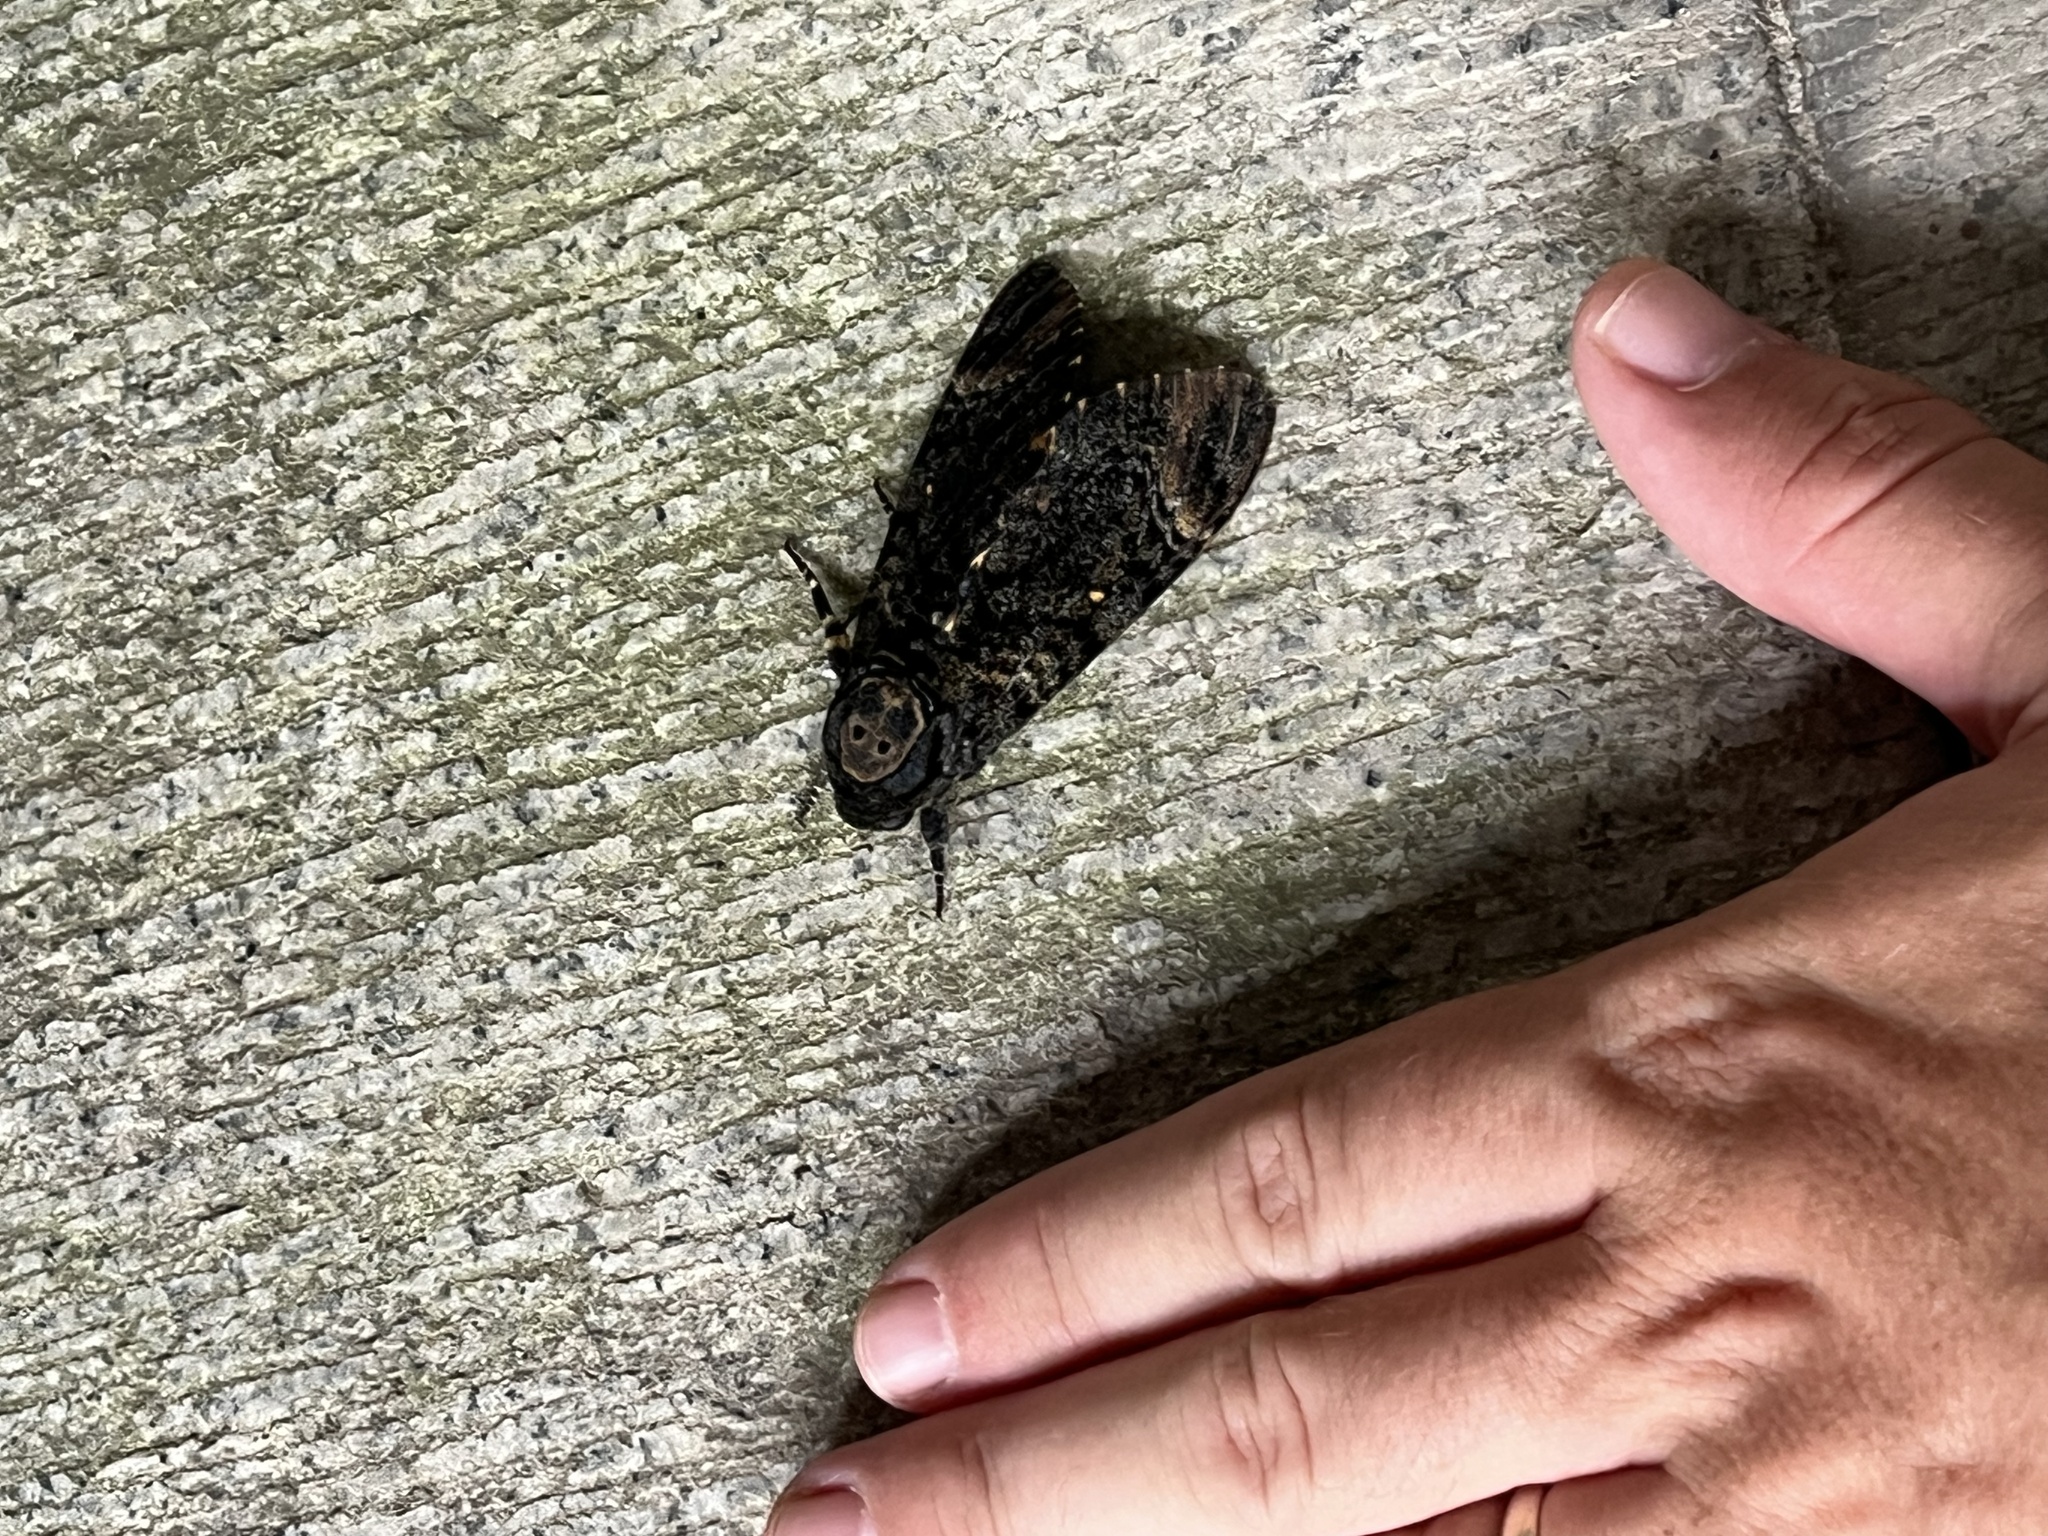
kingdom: Animalia
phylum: Arthropoda
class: Insecta
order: Lepidoptera
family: Sphingidae
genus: Acherontia
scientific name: Acherontia styx
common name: Death's-head hawk moth
